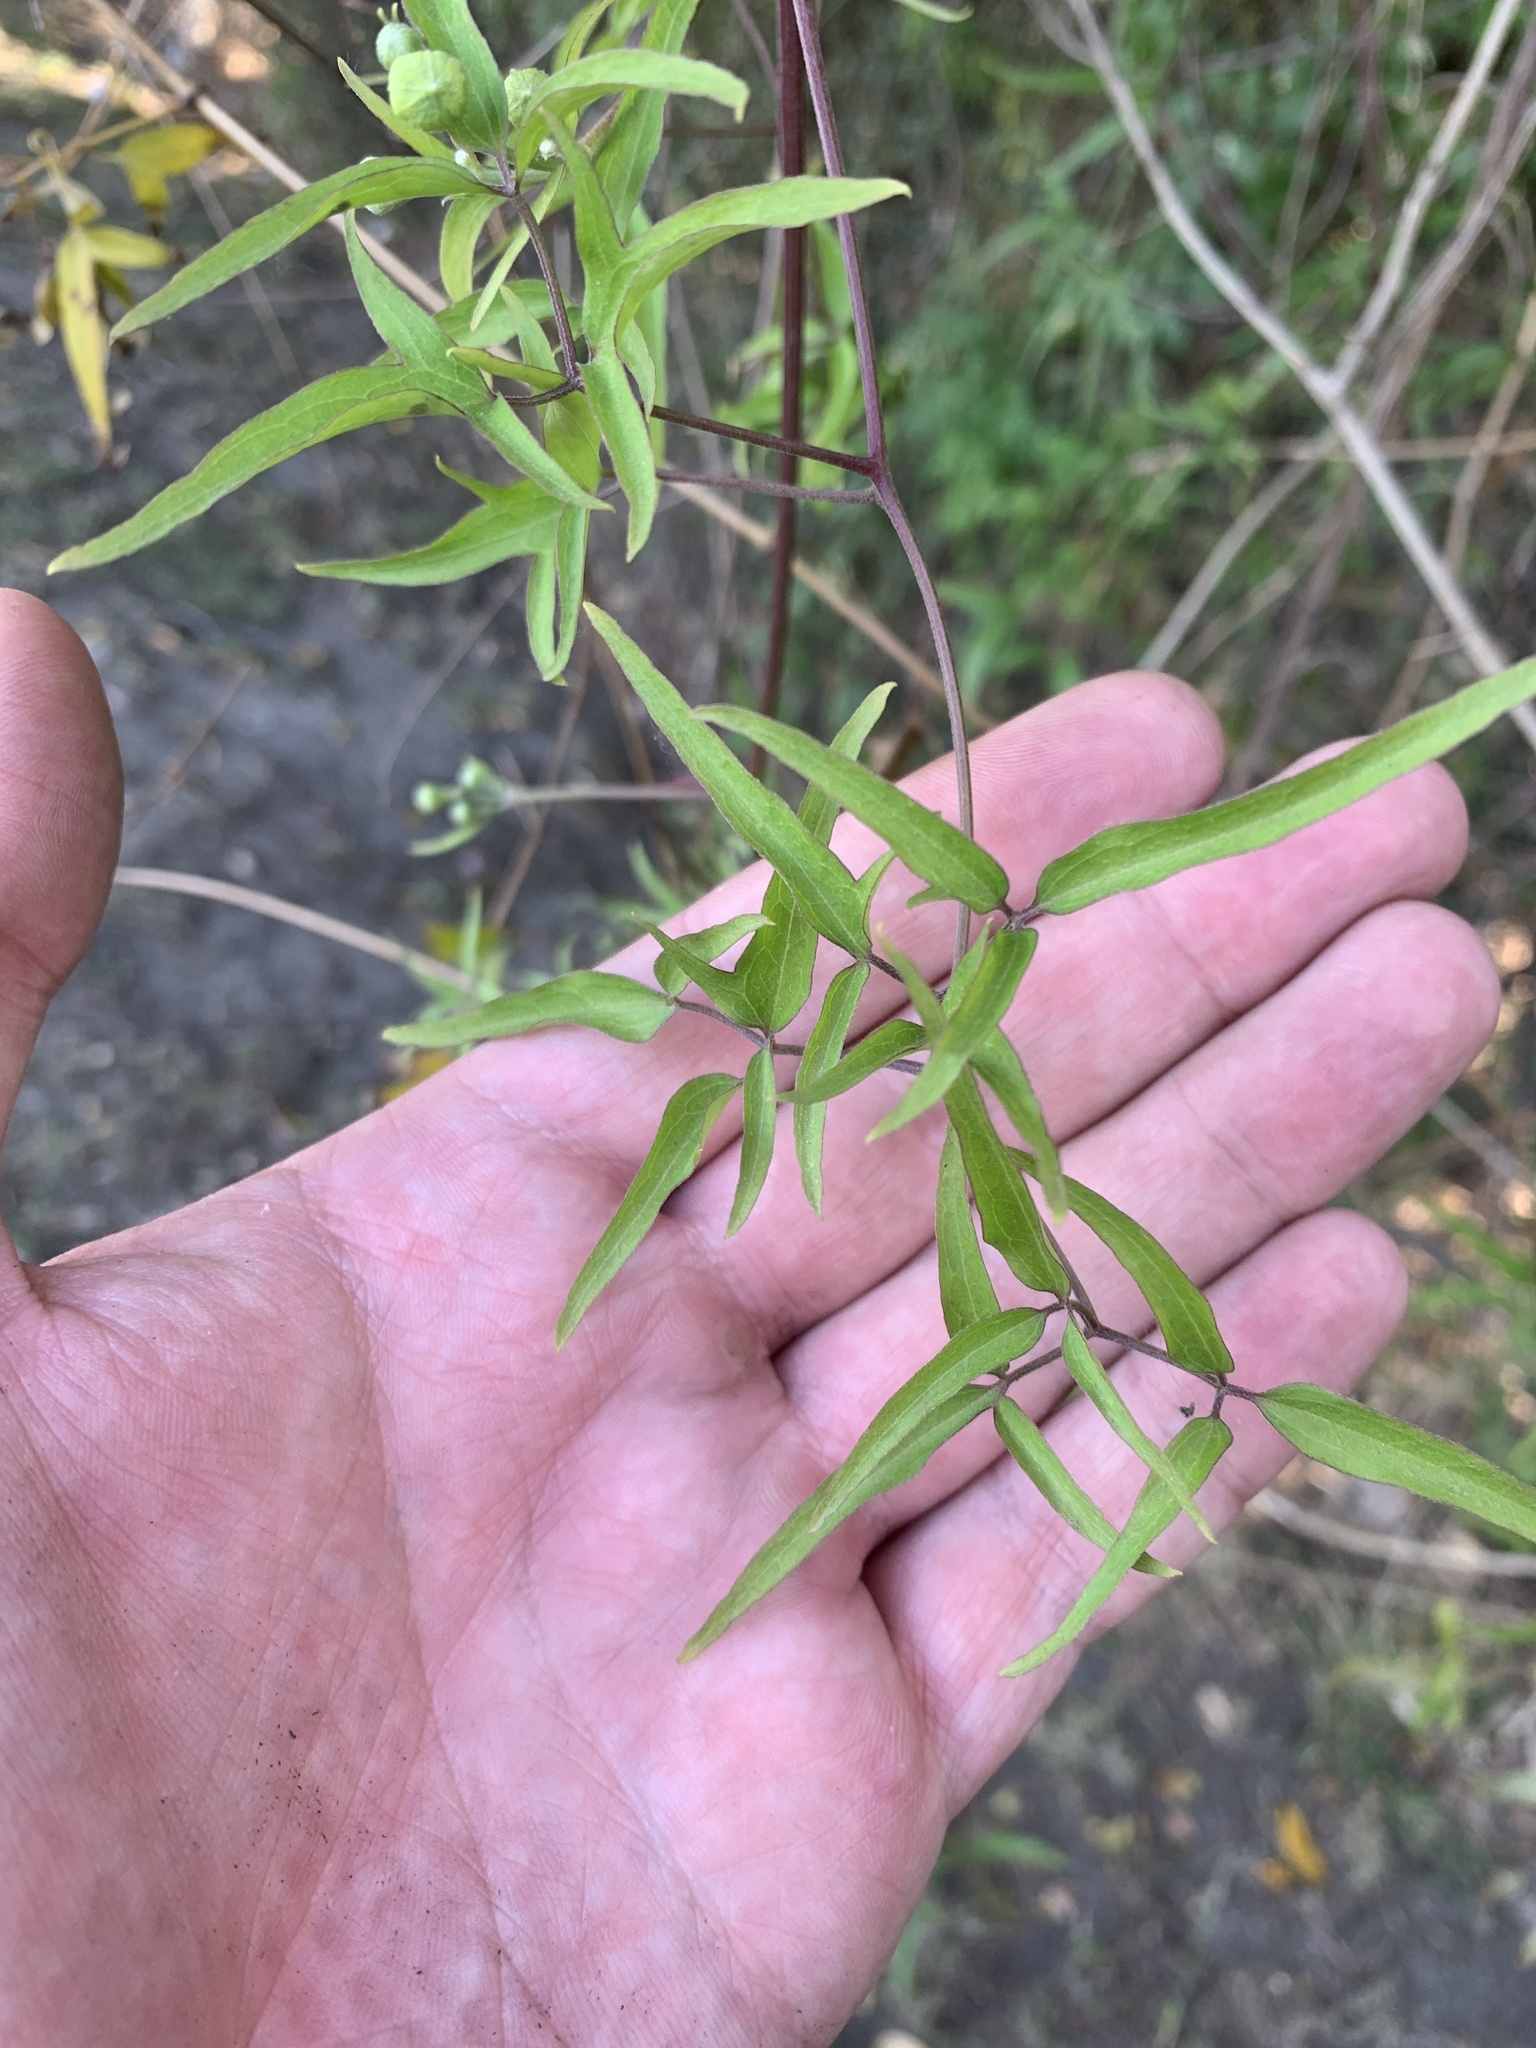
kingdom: Plantae
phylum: Tracheophyta
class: Magnoliopsida
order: Ranunculales
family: Ranunculaceae
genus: Clematis
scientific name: Clematis montevidensis
